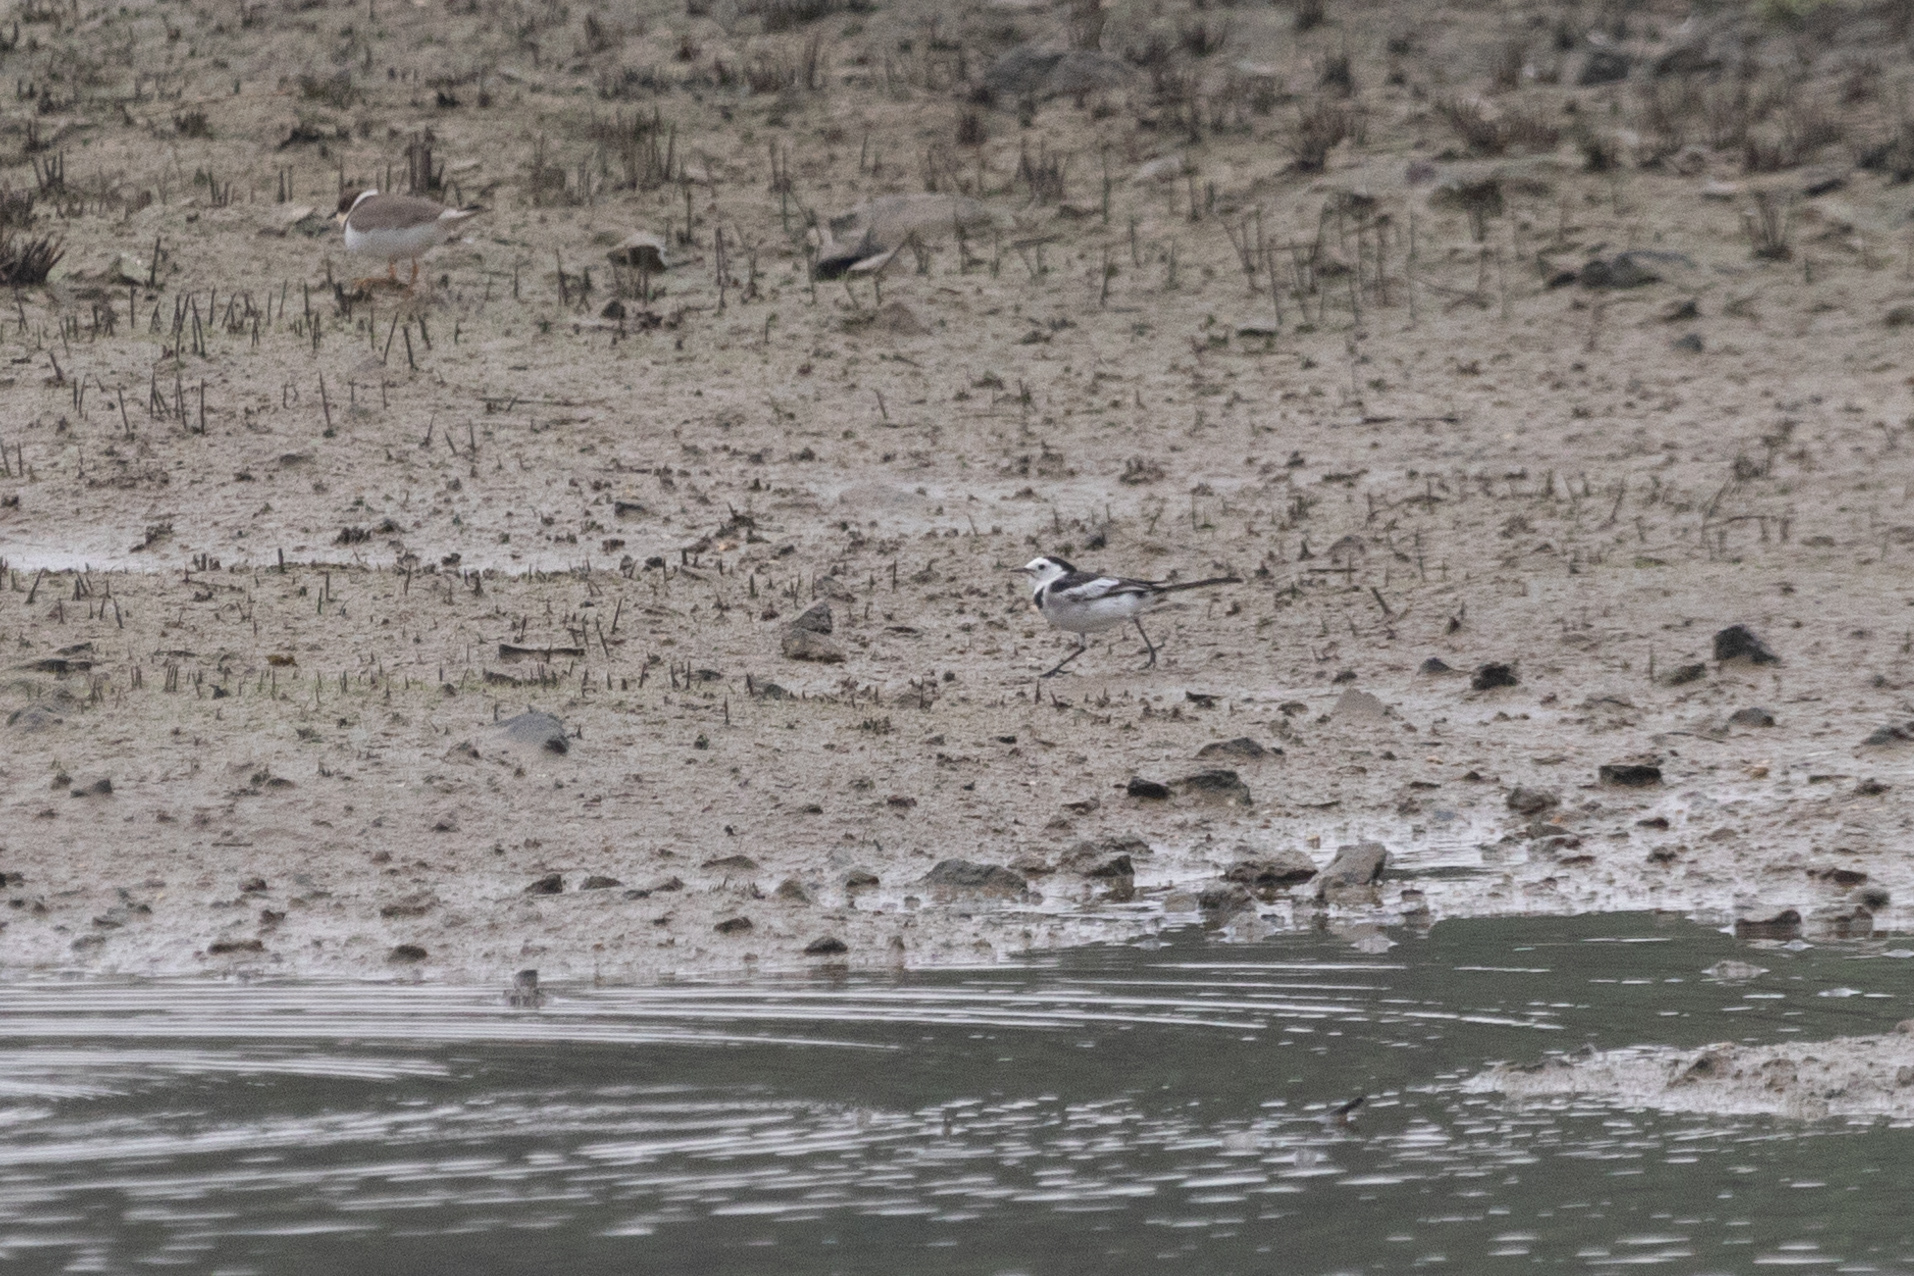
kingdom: Animalia
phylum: Chordata
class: Aves
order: Passeriformes
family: Motacillidae
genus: Motacilla
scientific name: Motacilla alba
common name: White wagtail
